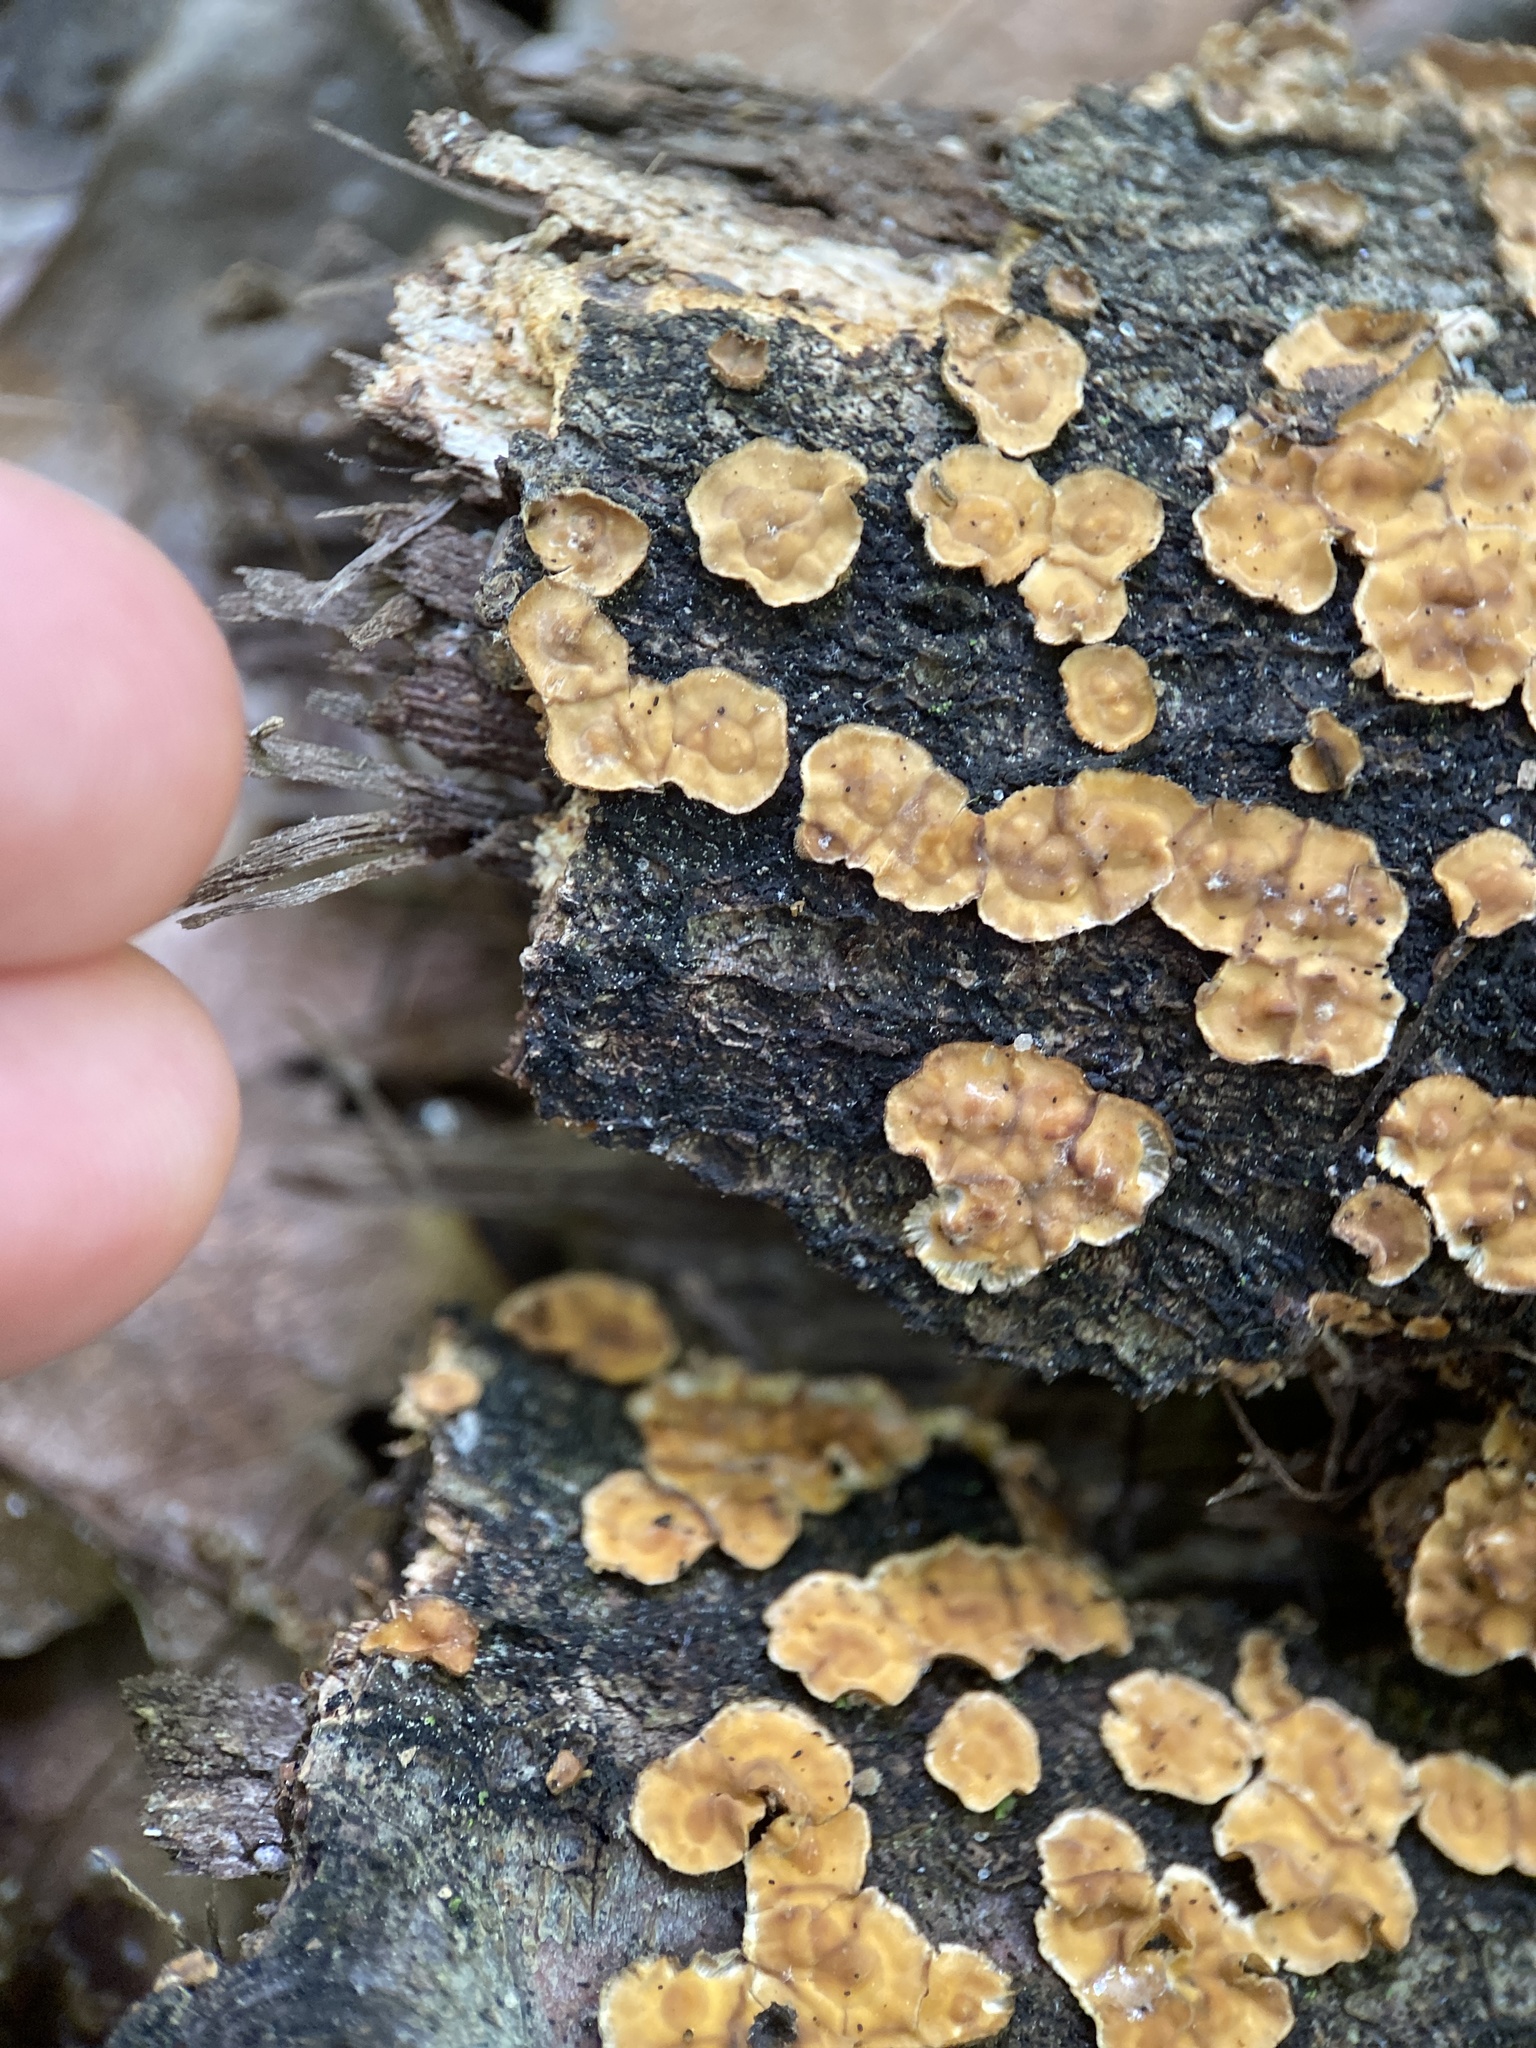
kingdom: Fungi
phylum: Basidiomycota
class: Agaricomycetes
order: Russulales
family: Stereaceae
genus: Stereum
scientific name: Stereum complicatum
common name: Crowded parchment
